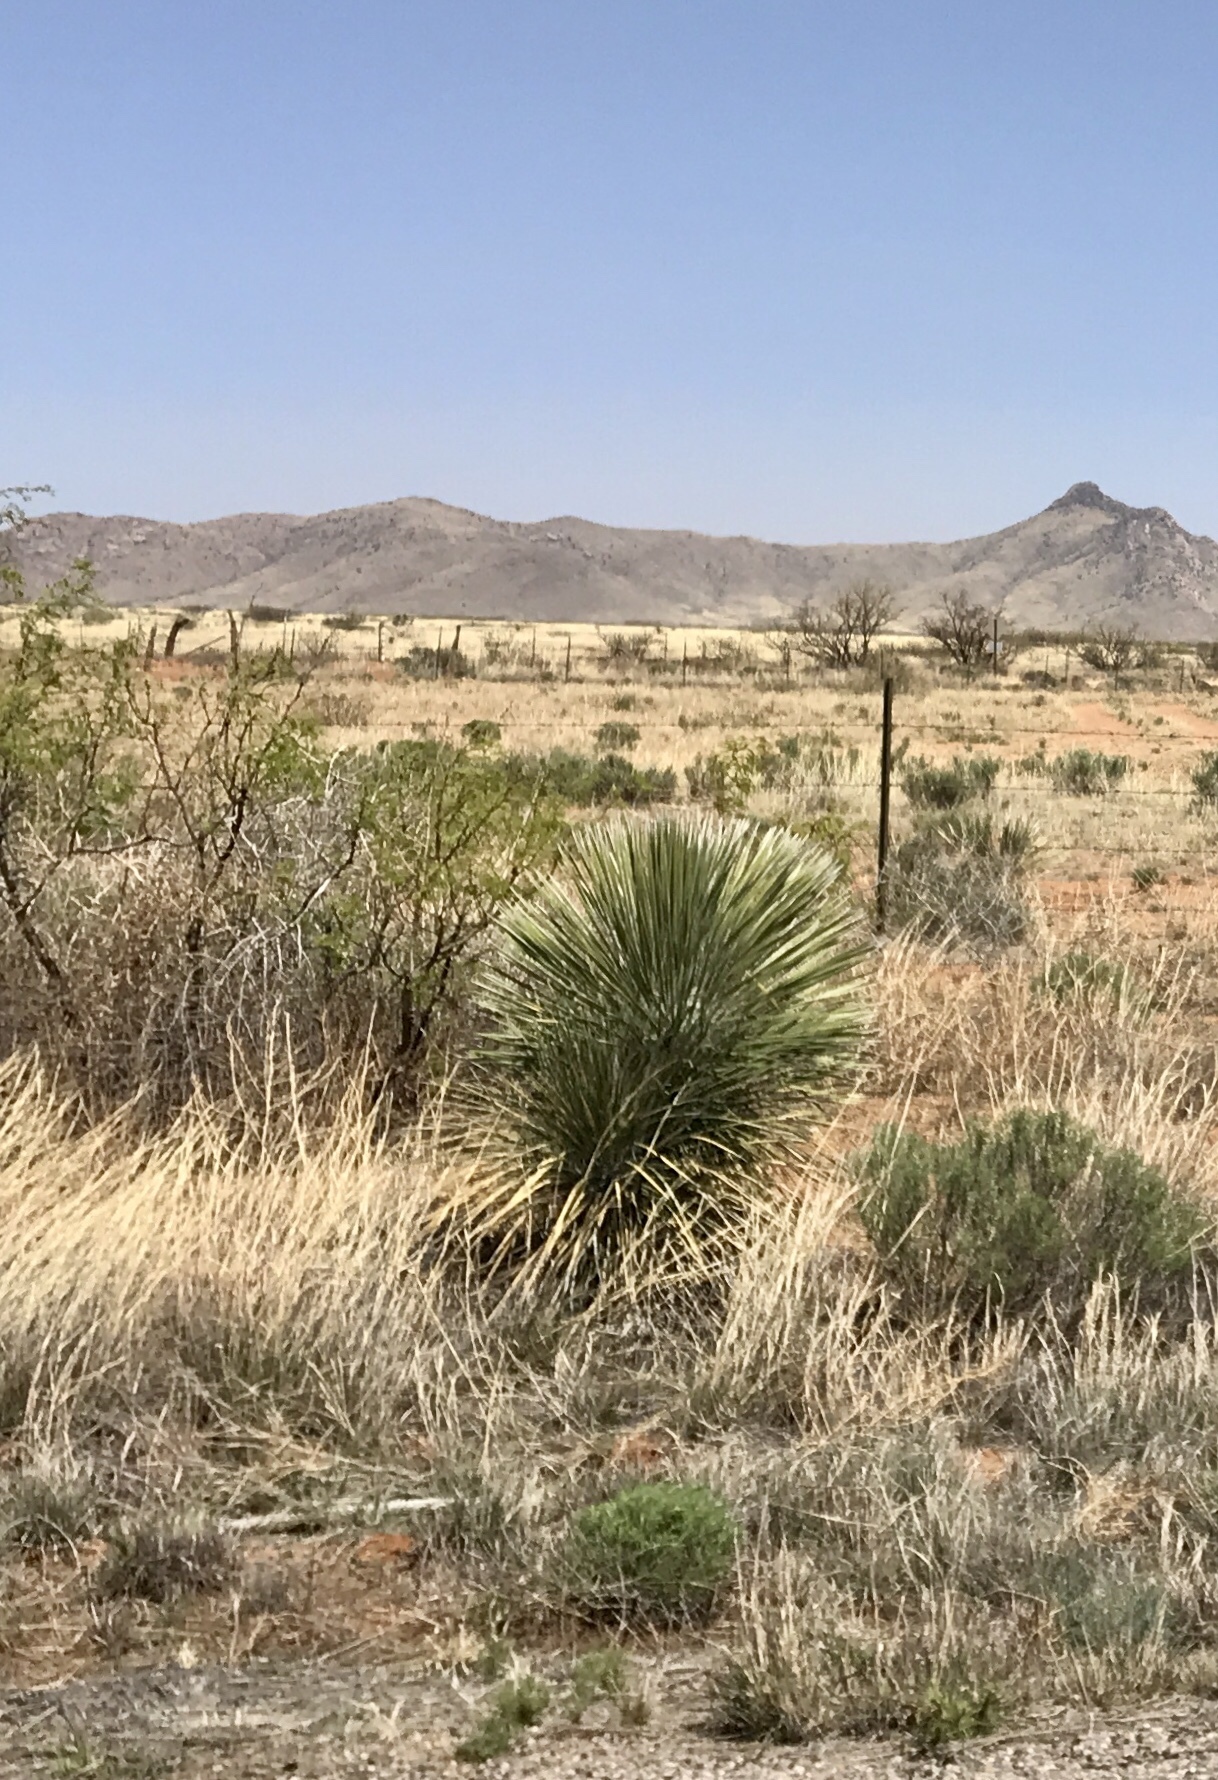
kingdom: Plantae
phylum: Tracheophyta
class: Liliopsida
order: Asparagales
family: Asparagaceae
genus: Yucca
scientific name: Yucca elata
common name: Palmella
